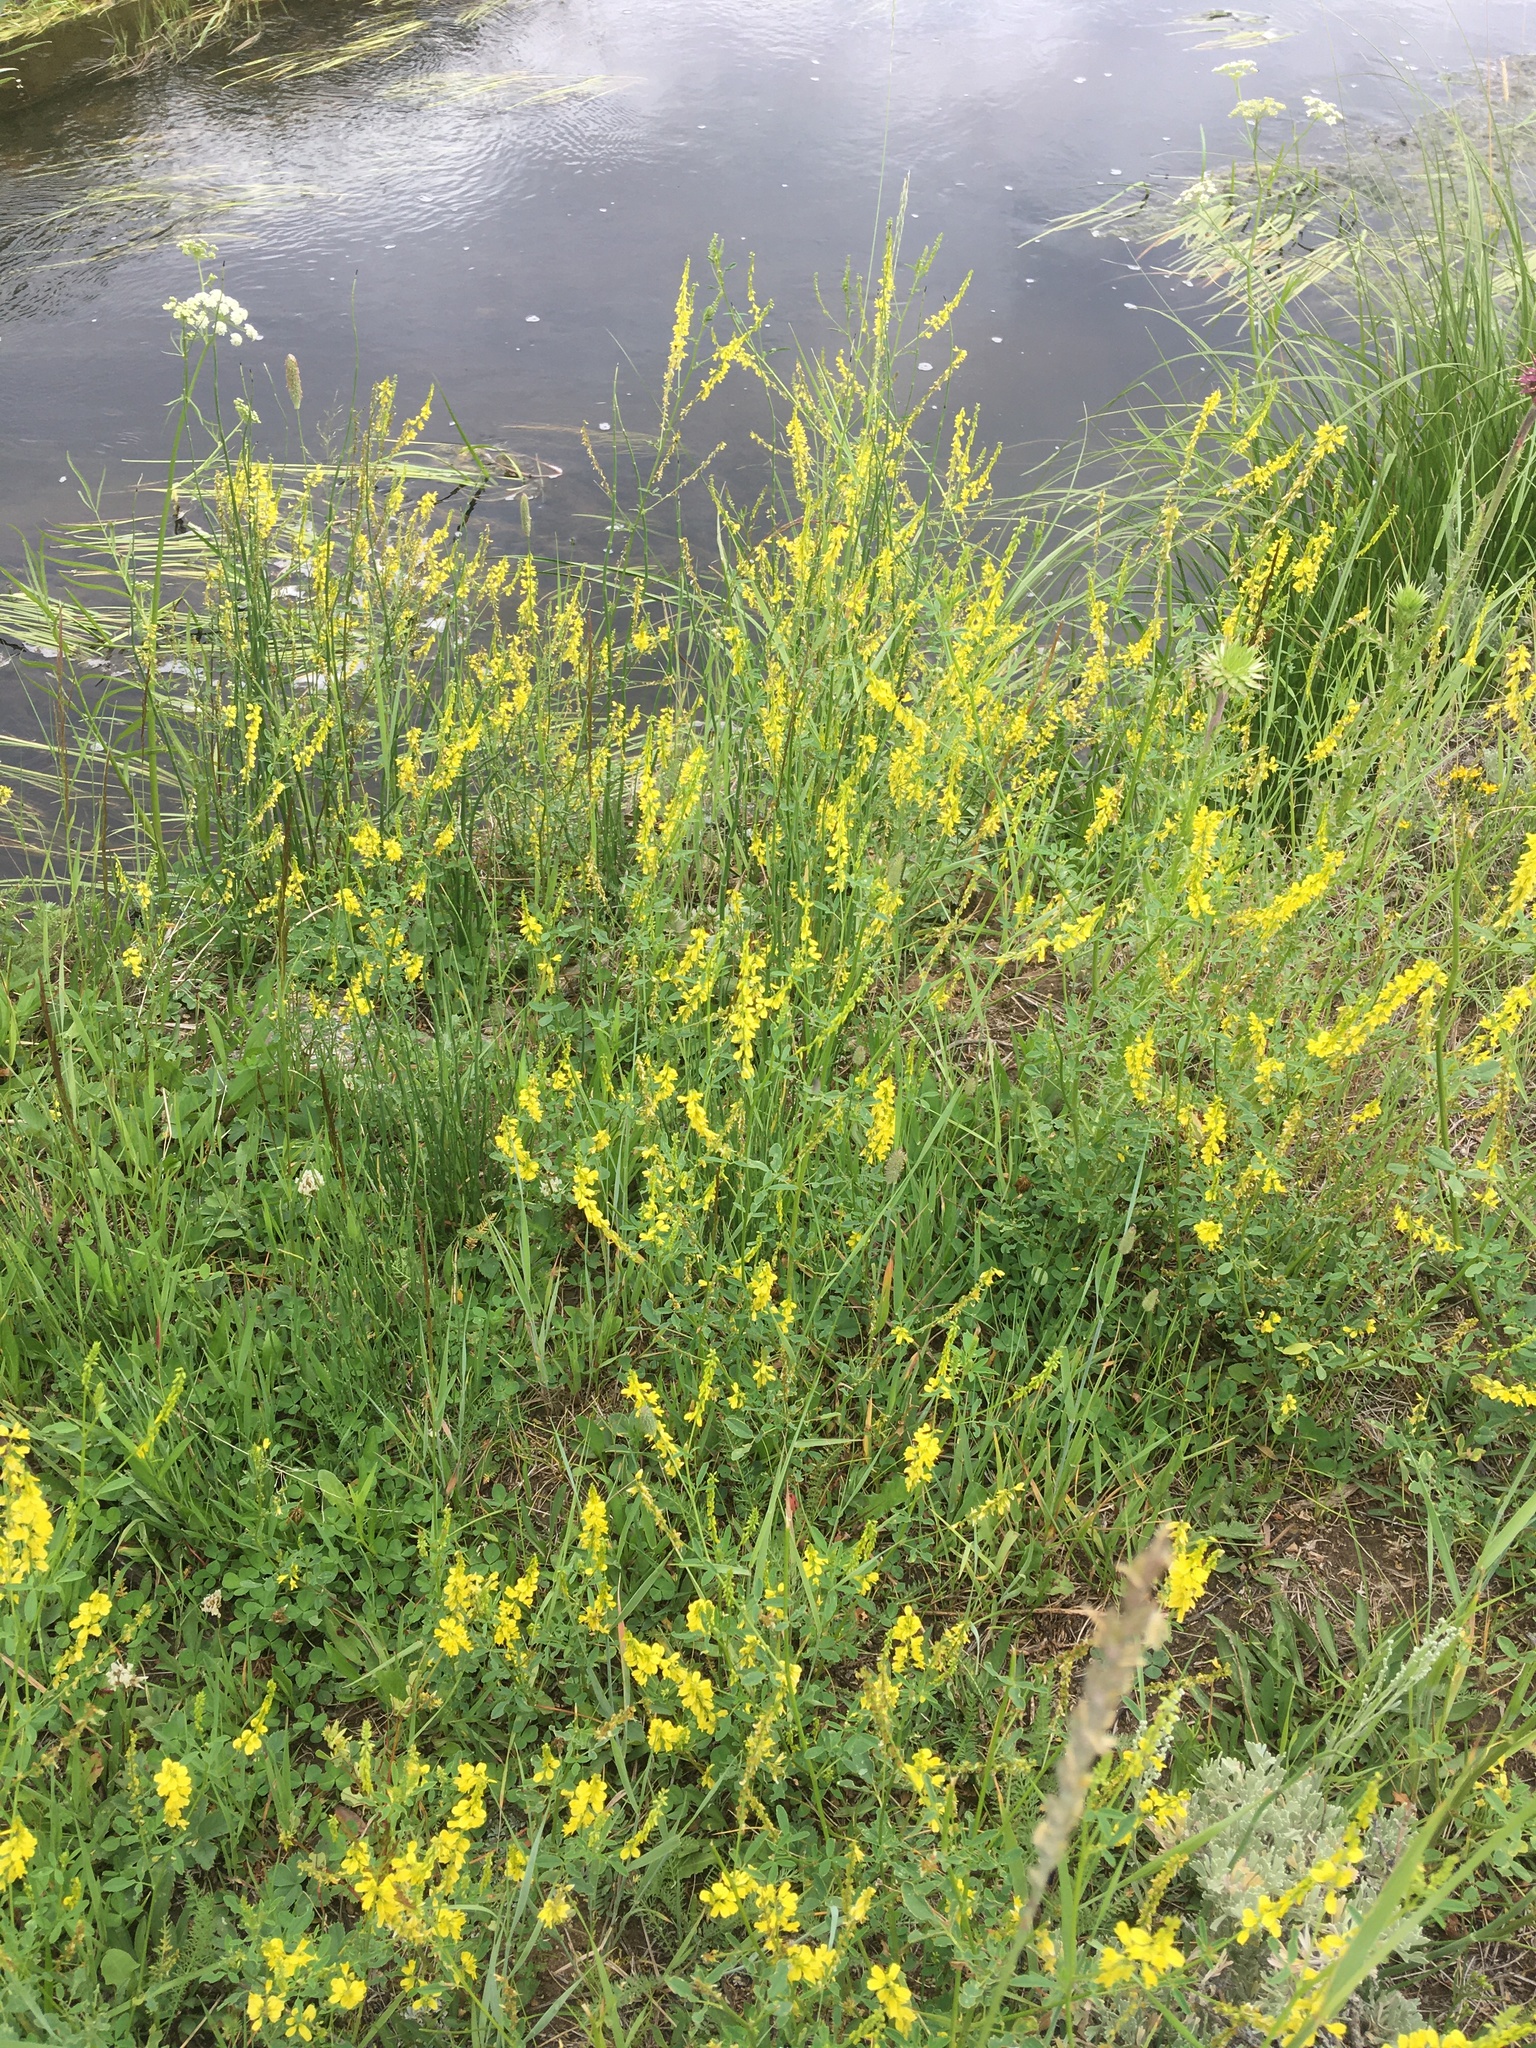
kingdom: Plantae
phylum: Tracheophyta
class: Magnoliopsida
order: Fabales
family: Fabaceae
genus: Melilotus
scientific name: Melilotus officinalis
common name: Sweetclover
